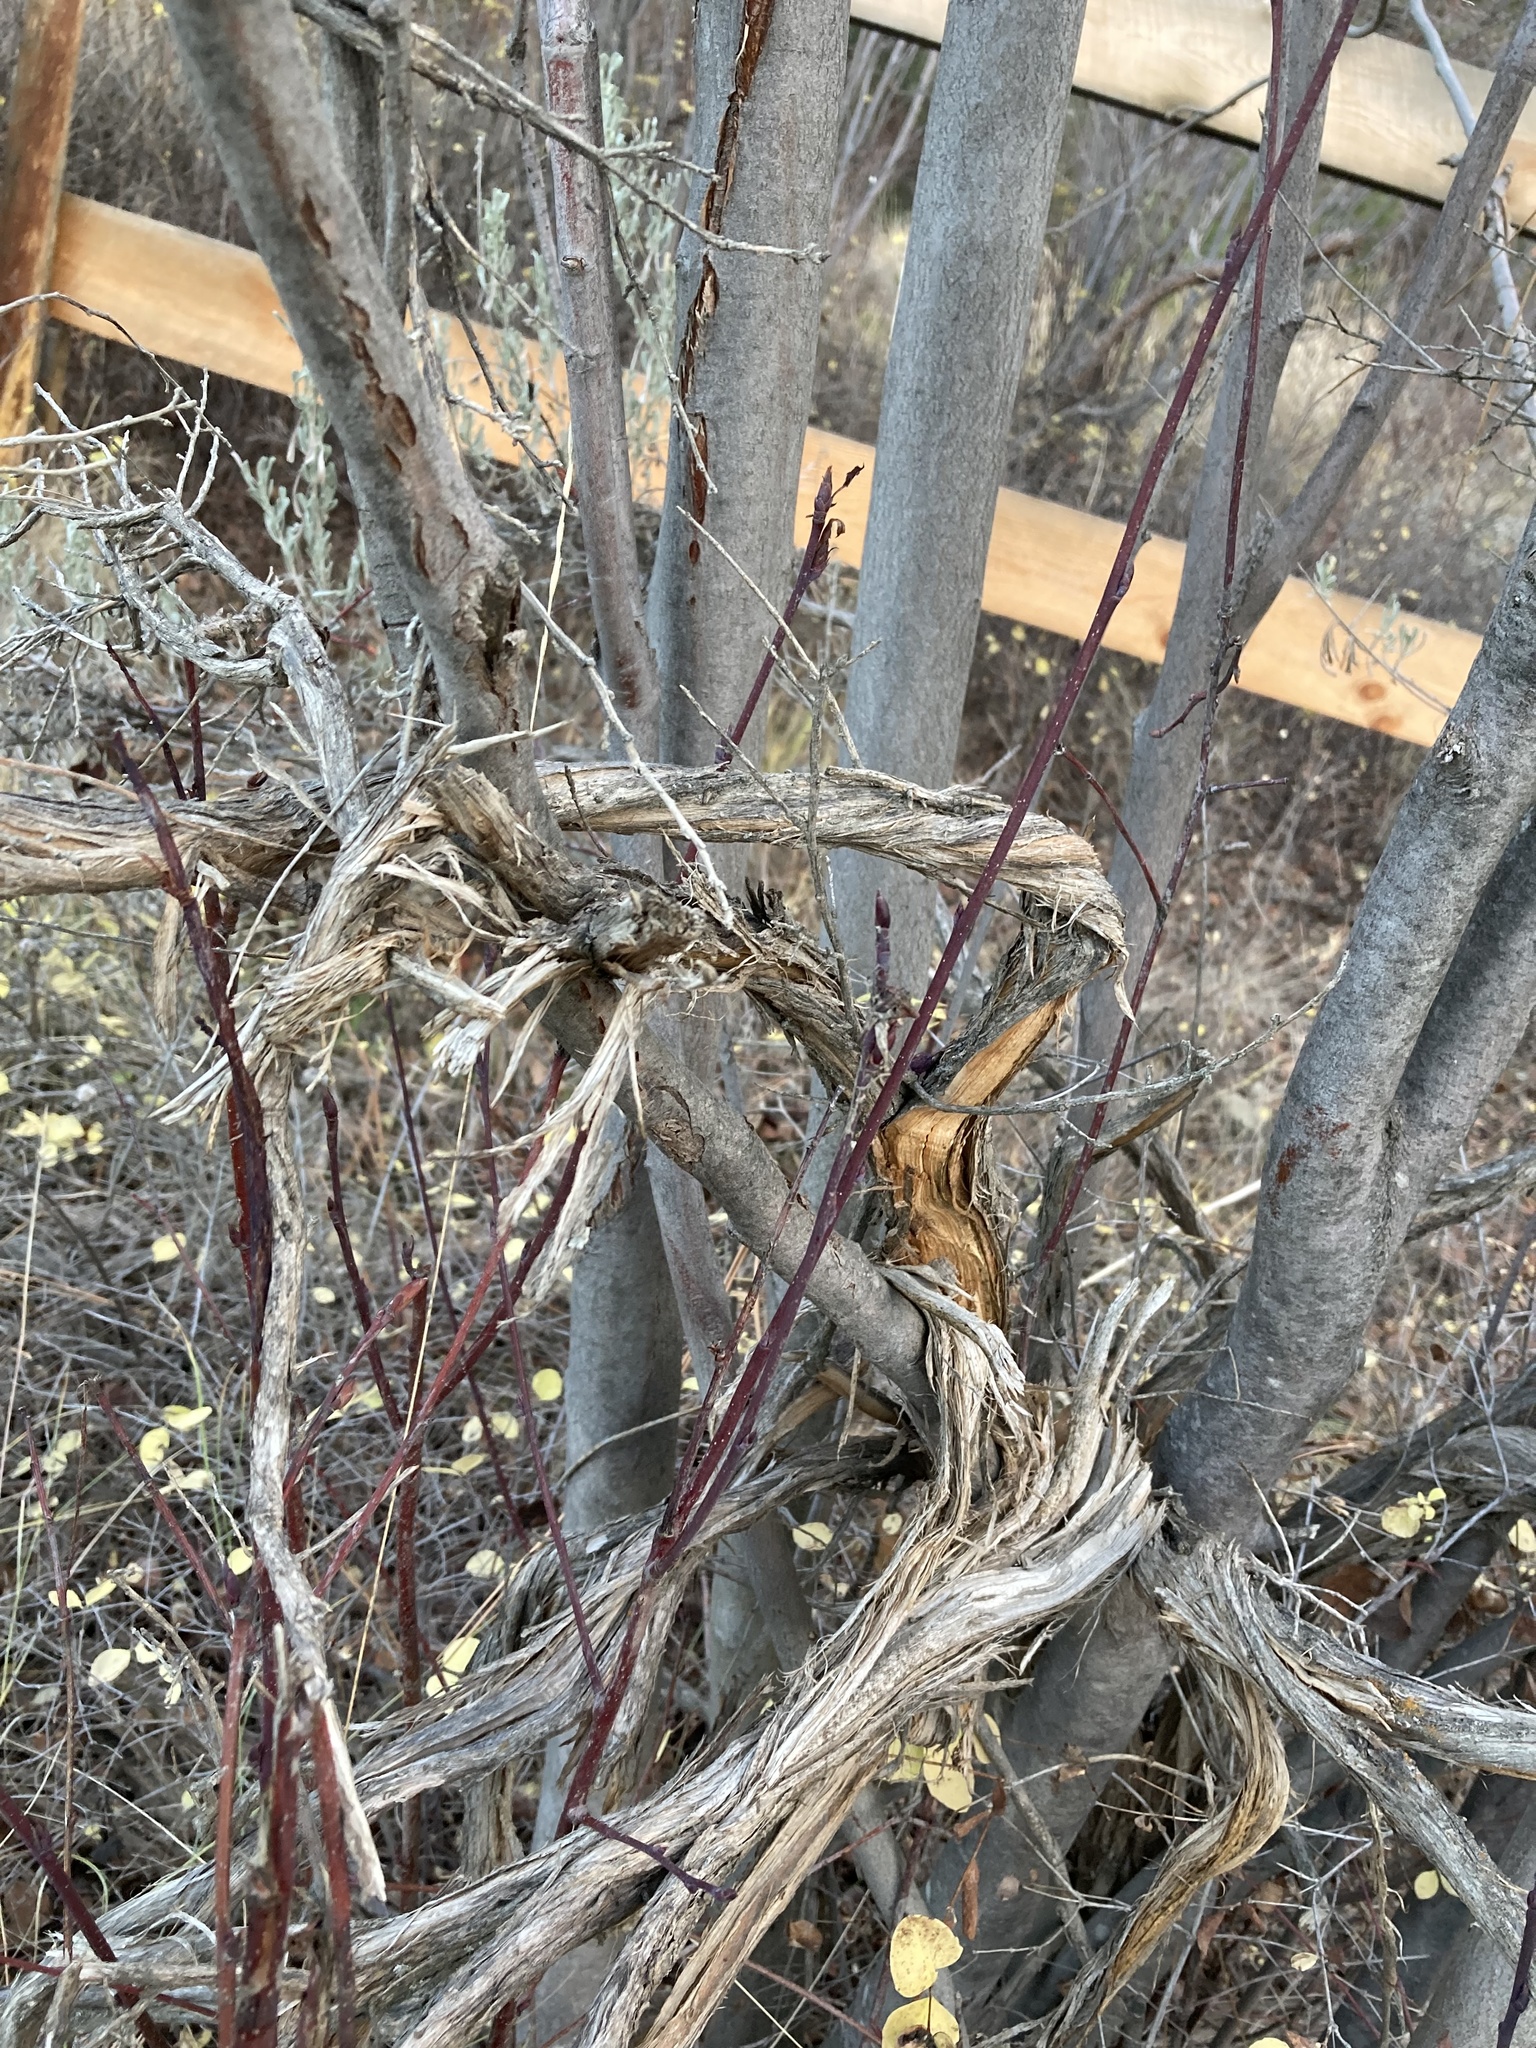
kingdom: Plantae
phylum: Tracheophyta
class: Magnoliopsida
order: Asterales
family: Asteraceae
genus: Artemisia
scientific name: Artemisia tridentata
